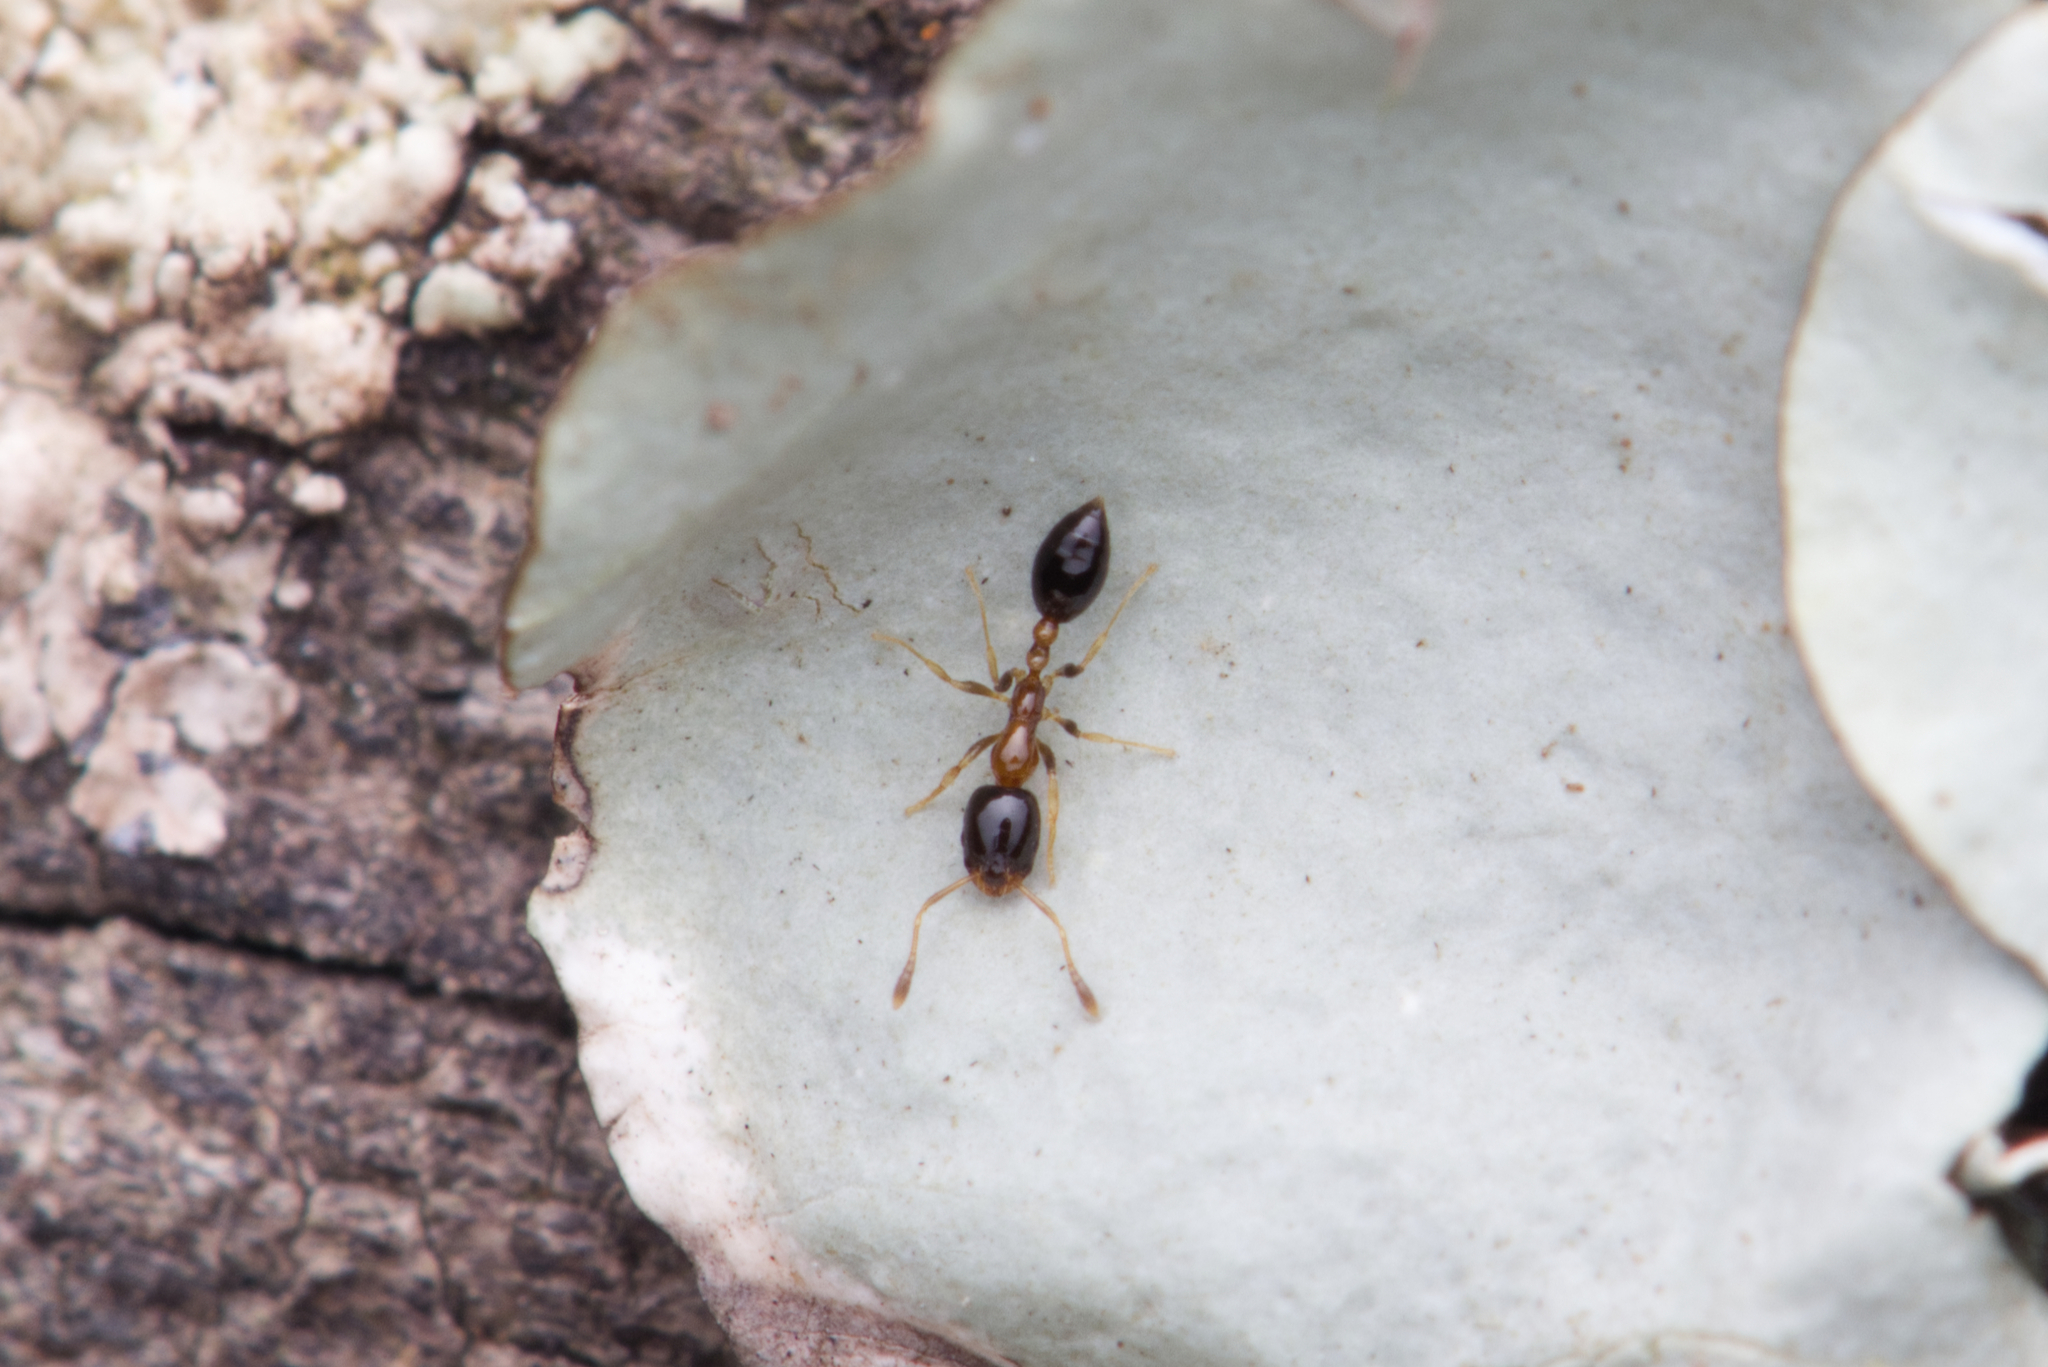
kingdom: Animalia
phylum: Arthropoda
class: Insecta
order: Hymenoptera
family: Formicidae
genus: Monomorium
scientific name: Monomorium floricola
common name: Bicolored trailing ant
